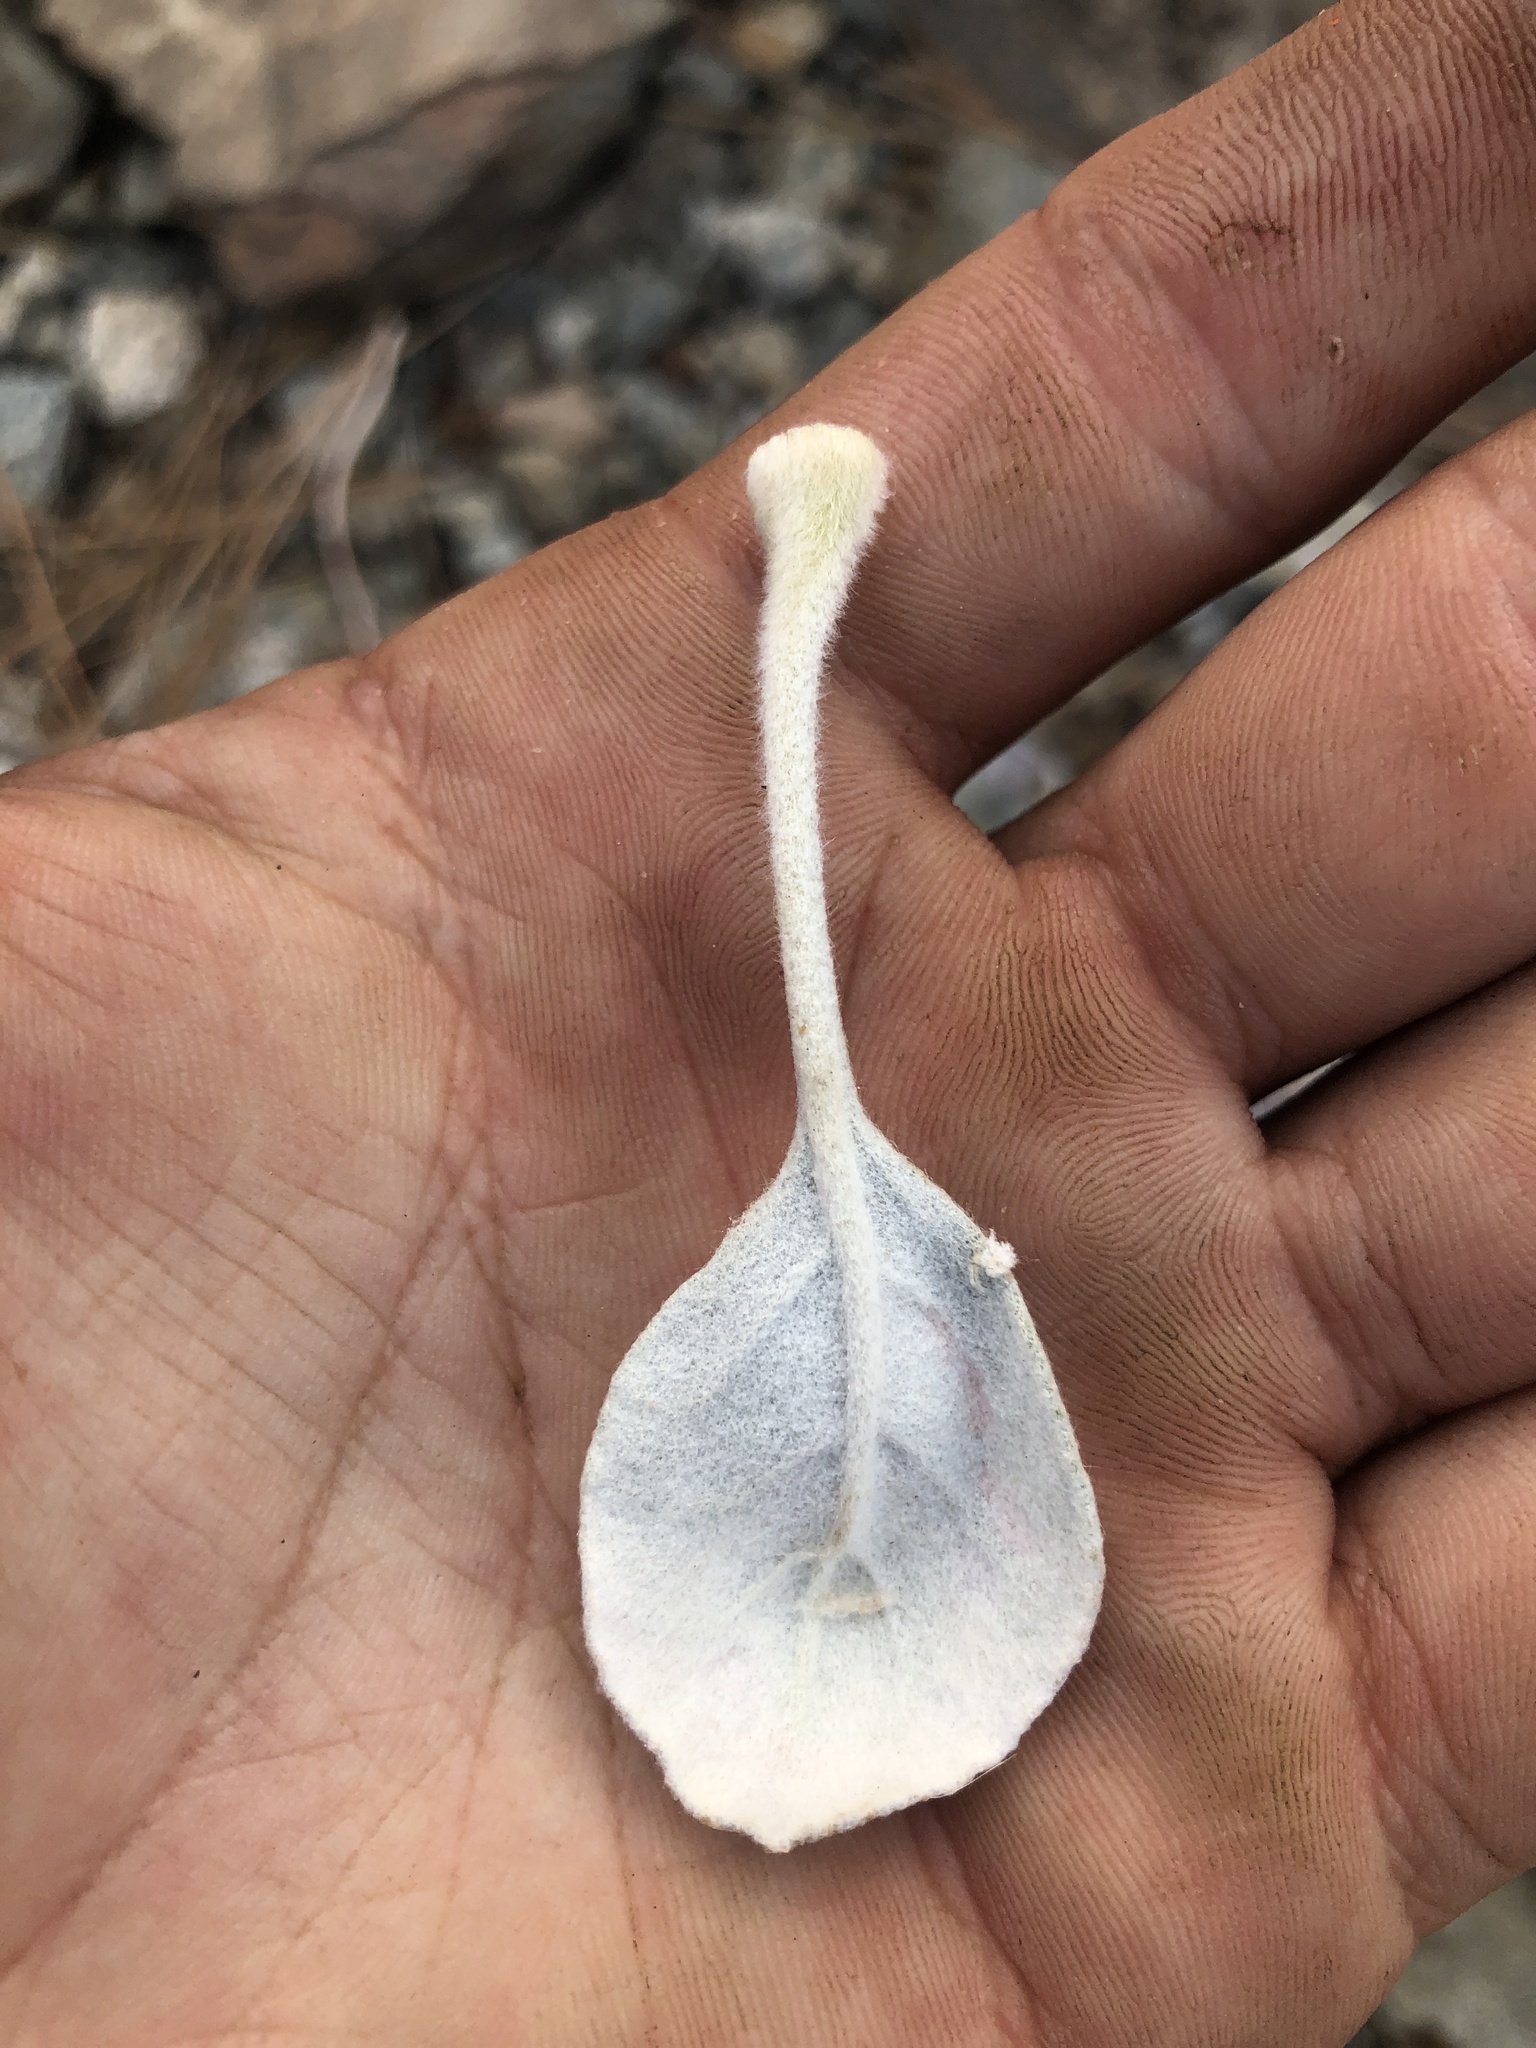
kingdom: Plantae
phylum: Tracheophyta
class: Magnoliopsida
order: Caryophyllales
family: Polygonaceae
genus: Eriogonum
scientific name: Eriogonum lobbii
